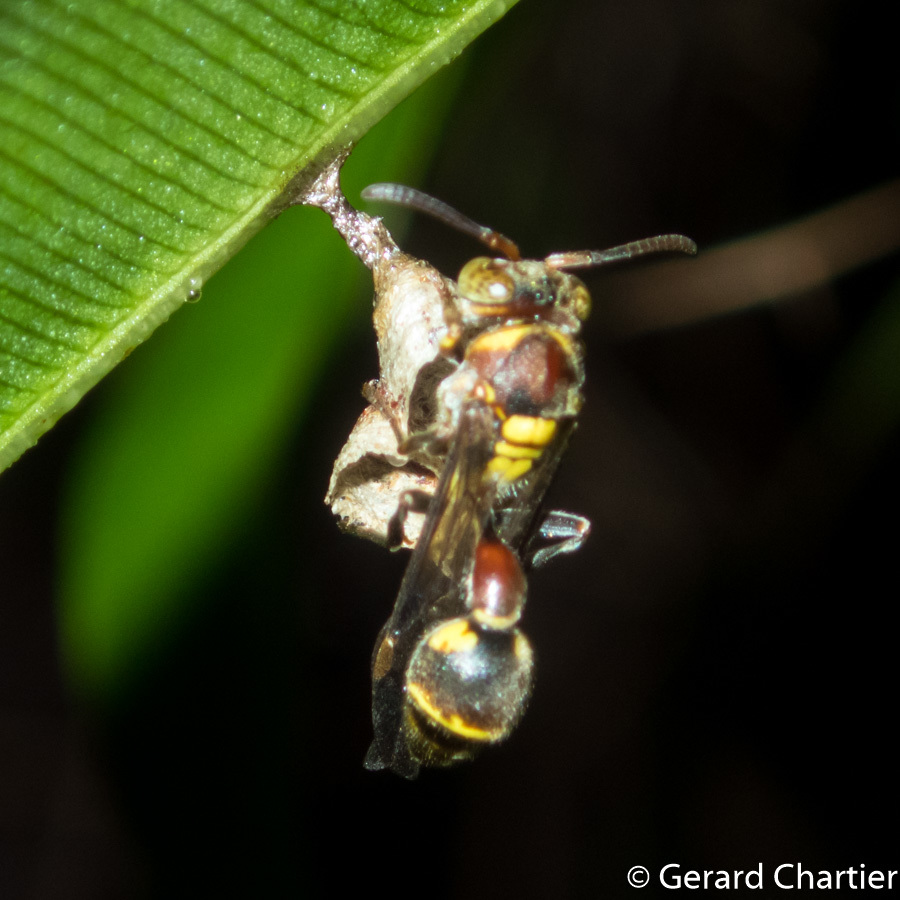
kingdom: Animalia
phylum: Arthropoda
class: Insecta
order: Hymenoptera
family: Vespidae
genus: Ropalidia
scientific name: Ropalidia stigma
